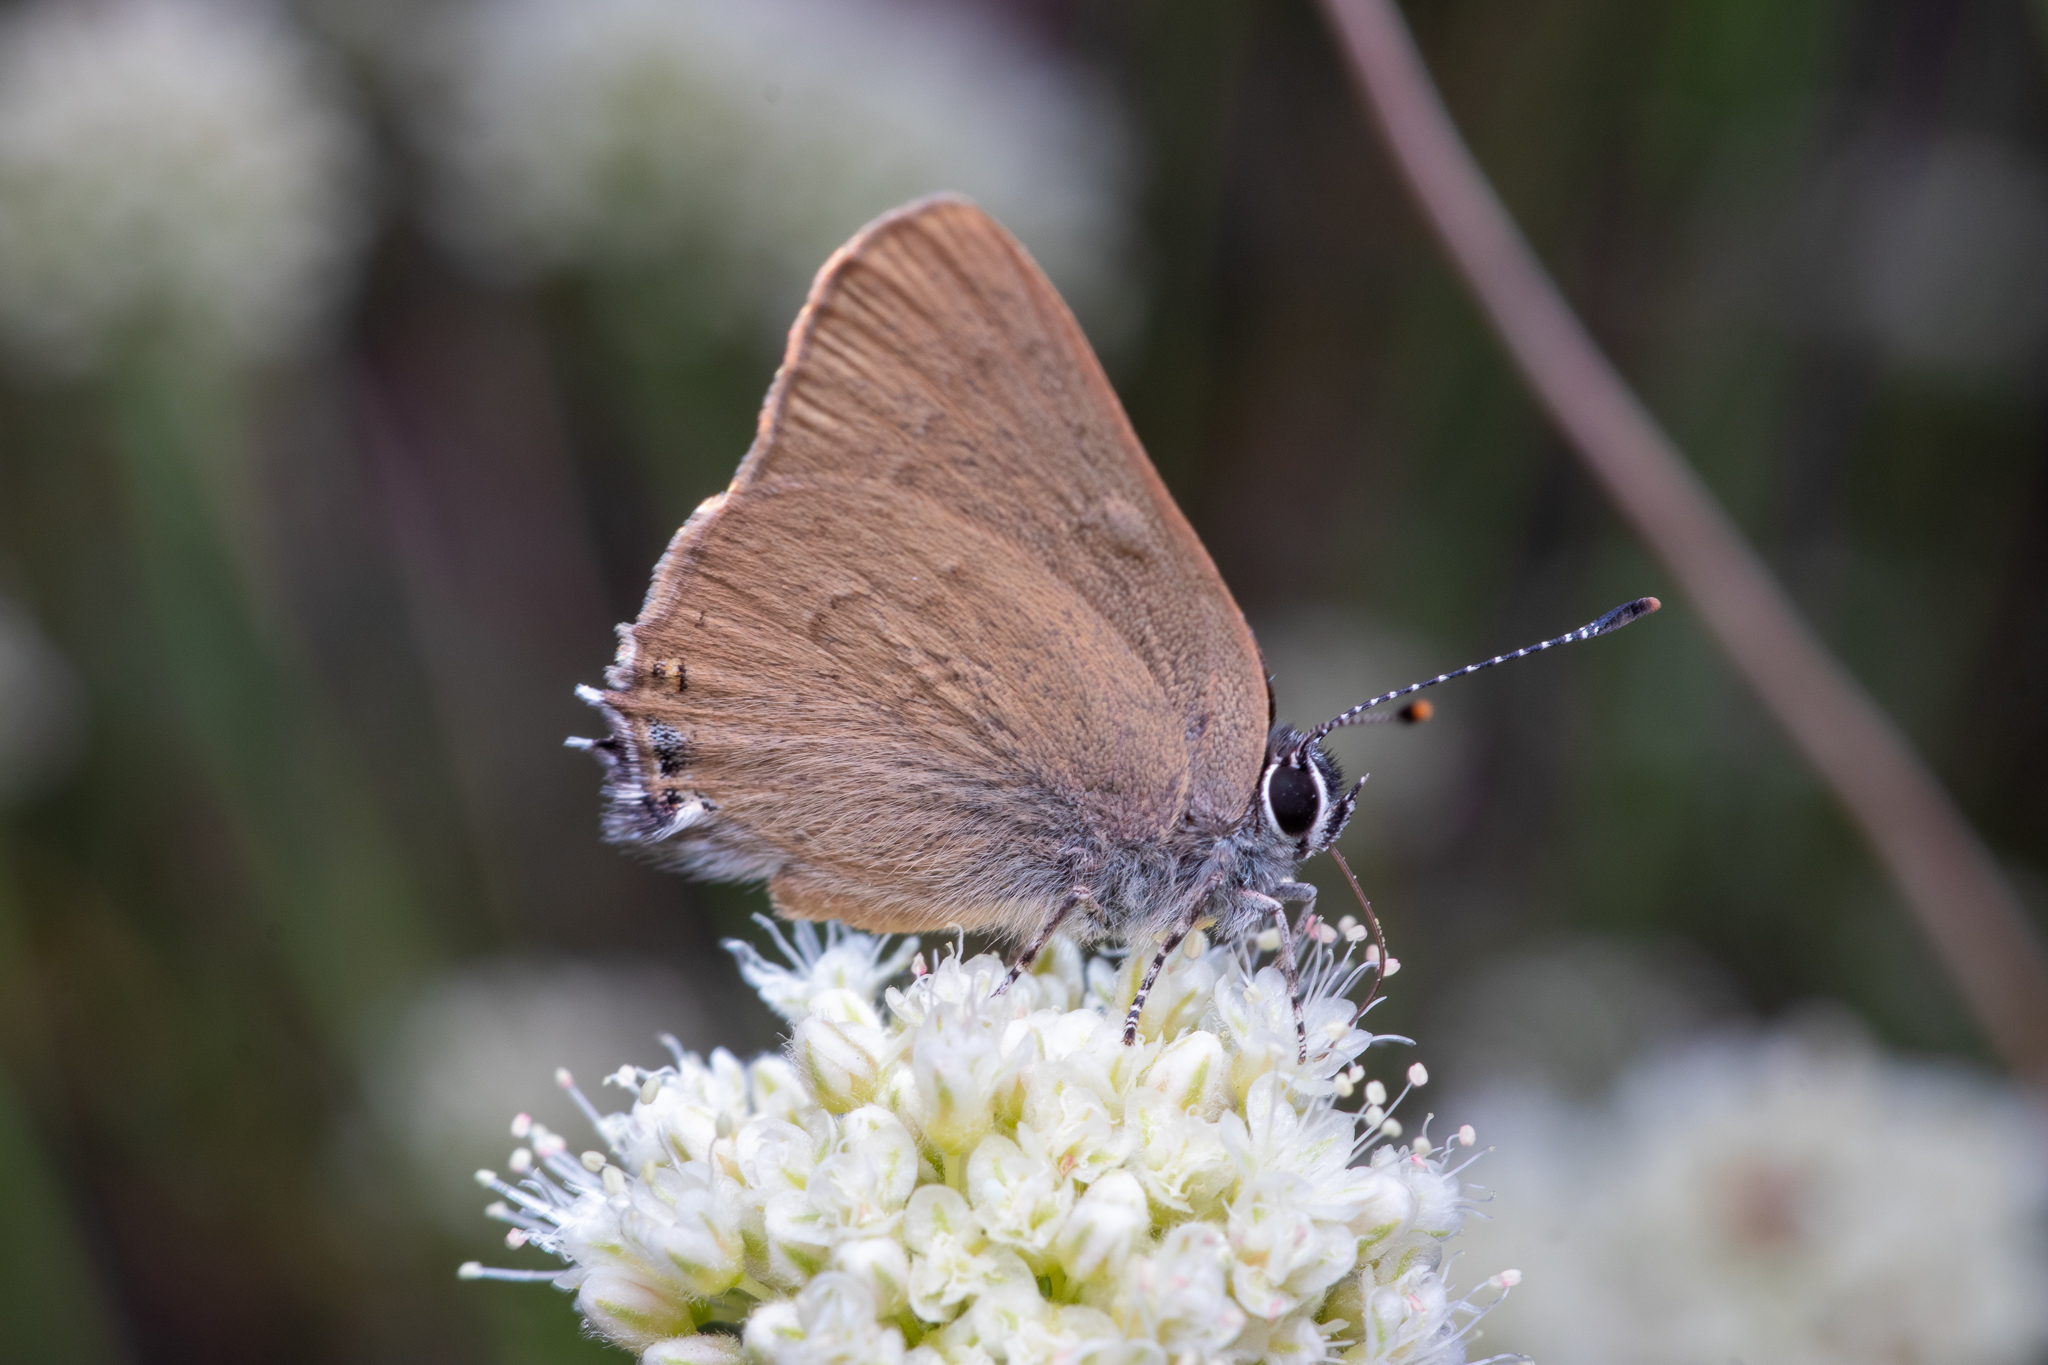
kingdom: Animalia
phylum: Arthropoda
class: Insecta
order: Lepidoptera
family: Lycaenidae
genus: Satyrium
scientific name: Satyrium calanus
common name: Banded hairstreak
